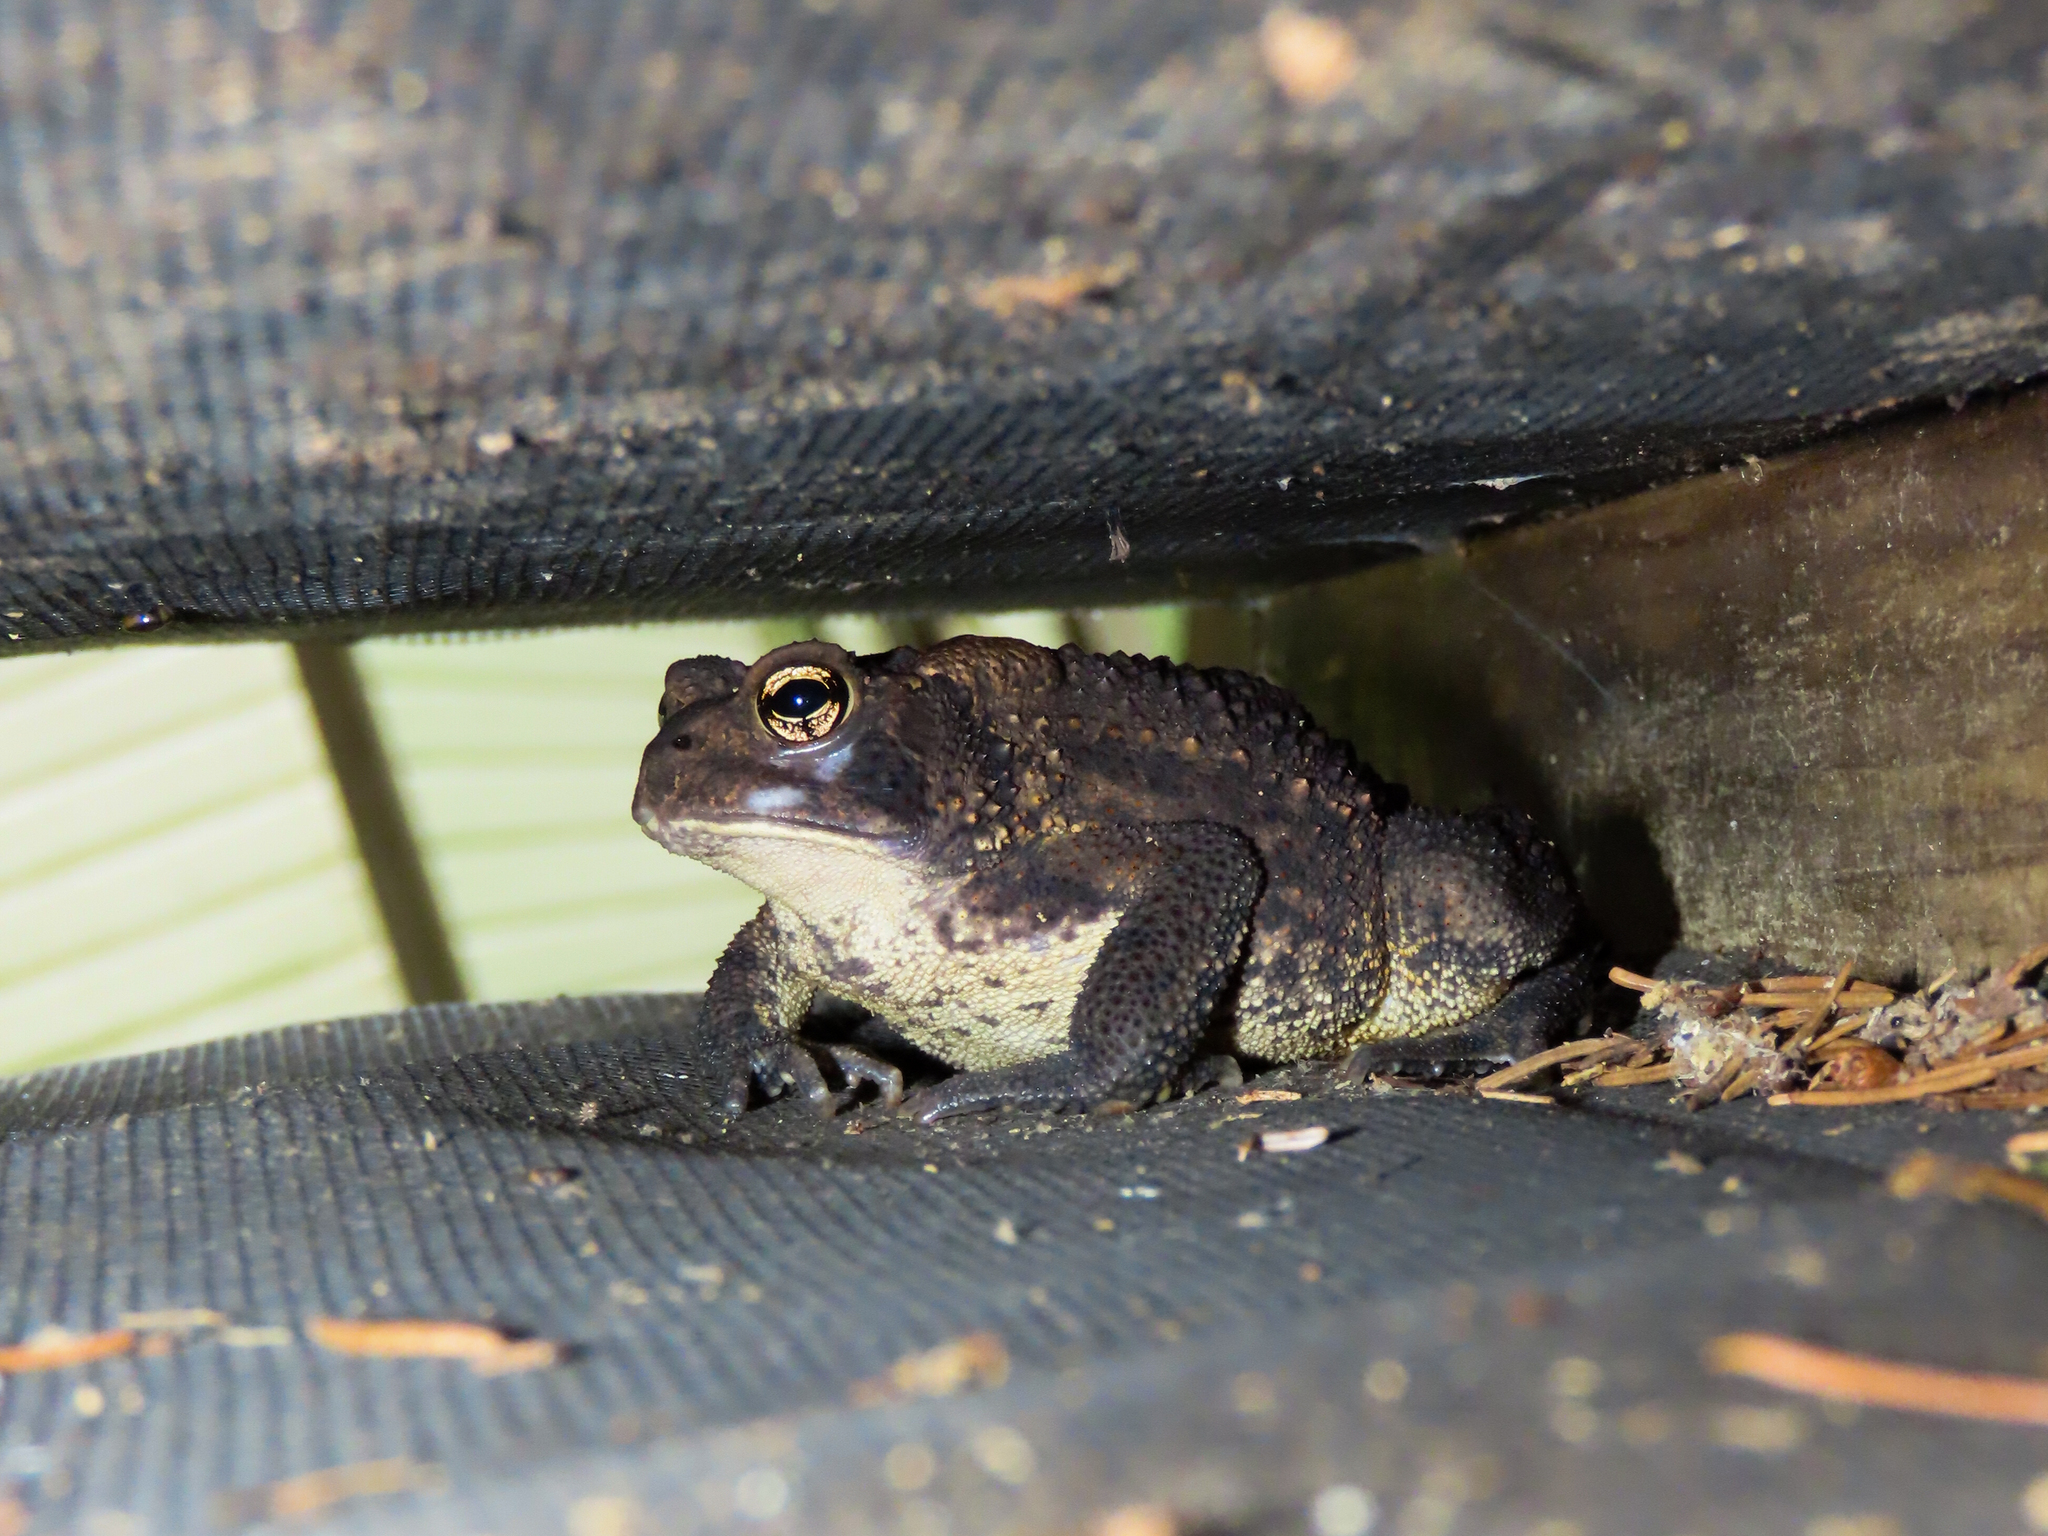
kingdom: Animalia
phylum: Chordata
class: Amphibia
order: Anura
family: Bufonidae
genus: Anaxyrus
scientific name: Anaxyrus americanus
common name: American toad
